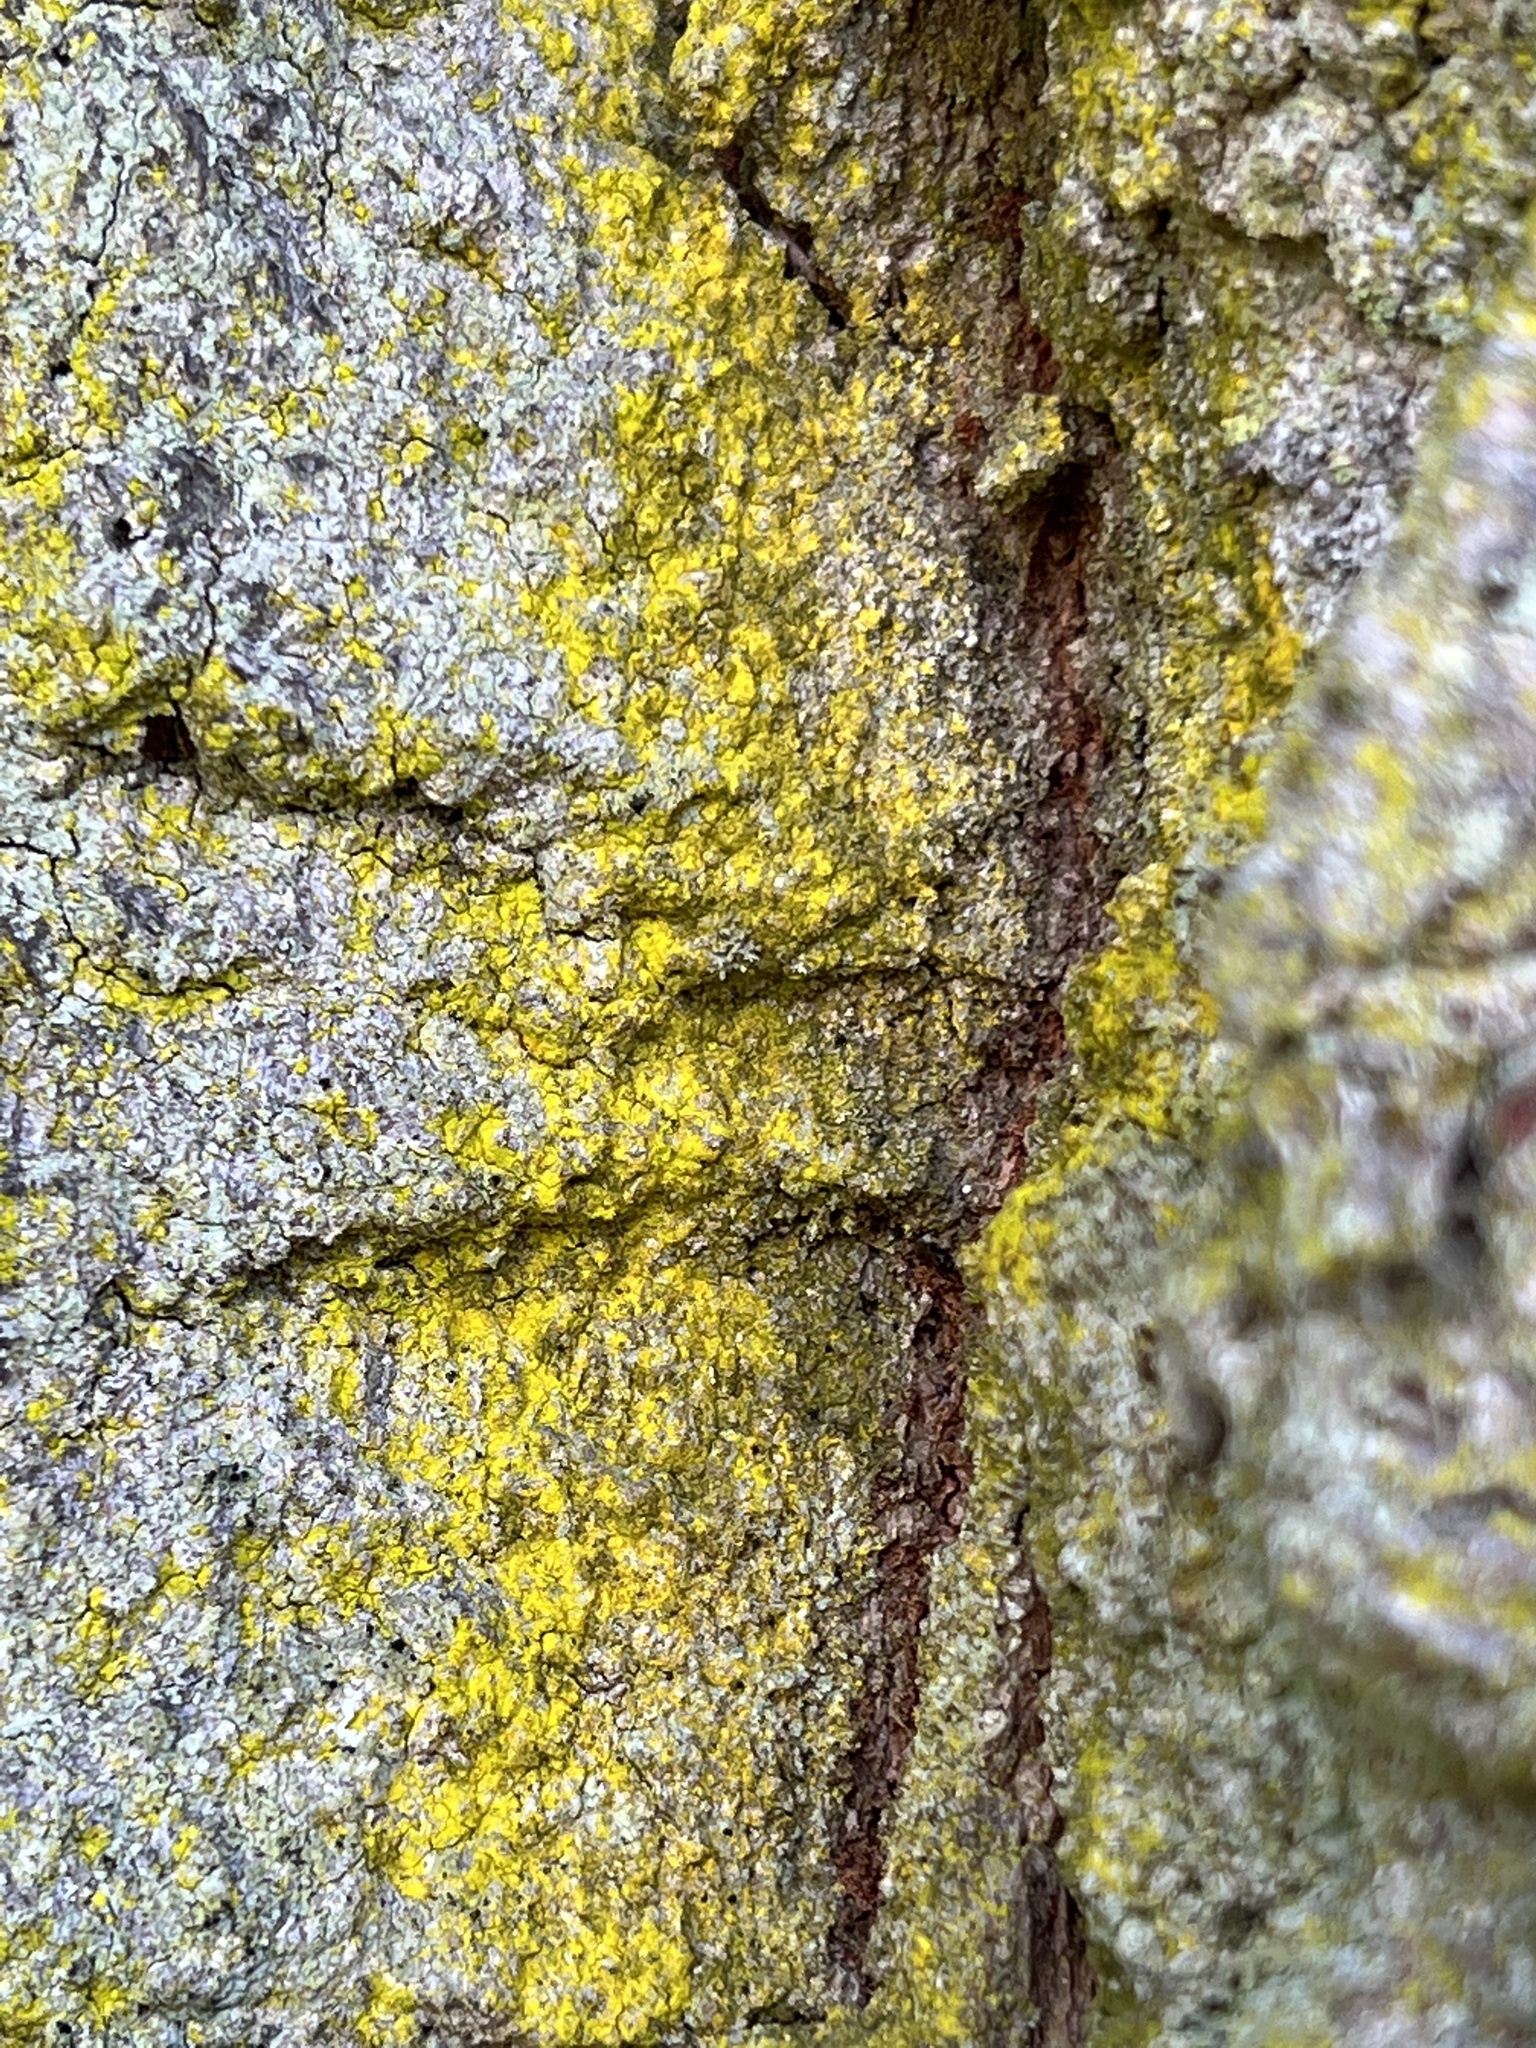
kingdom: Fungi
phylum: Ascomycota
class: Arthoniomycetes
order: Arthoniales
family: Chrysotrichaceae
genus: Chrysothrix
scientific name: Chrysothrix candelaris
